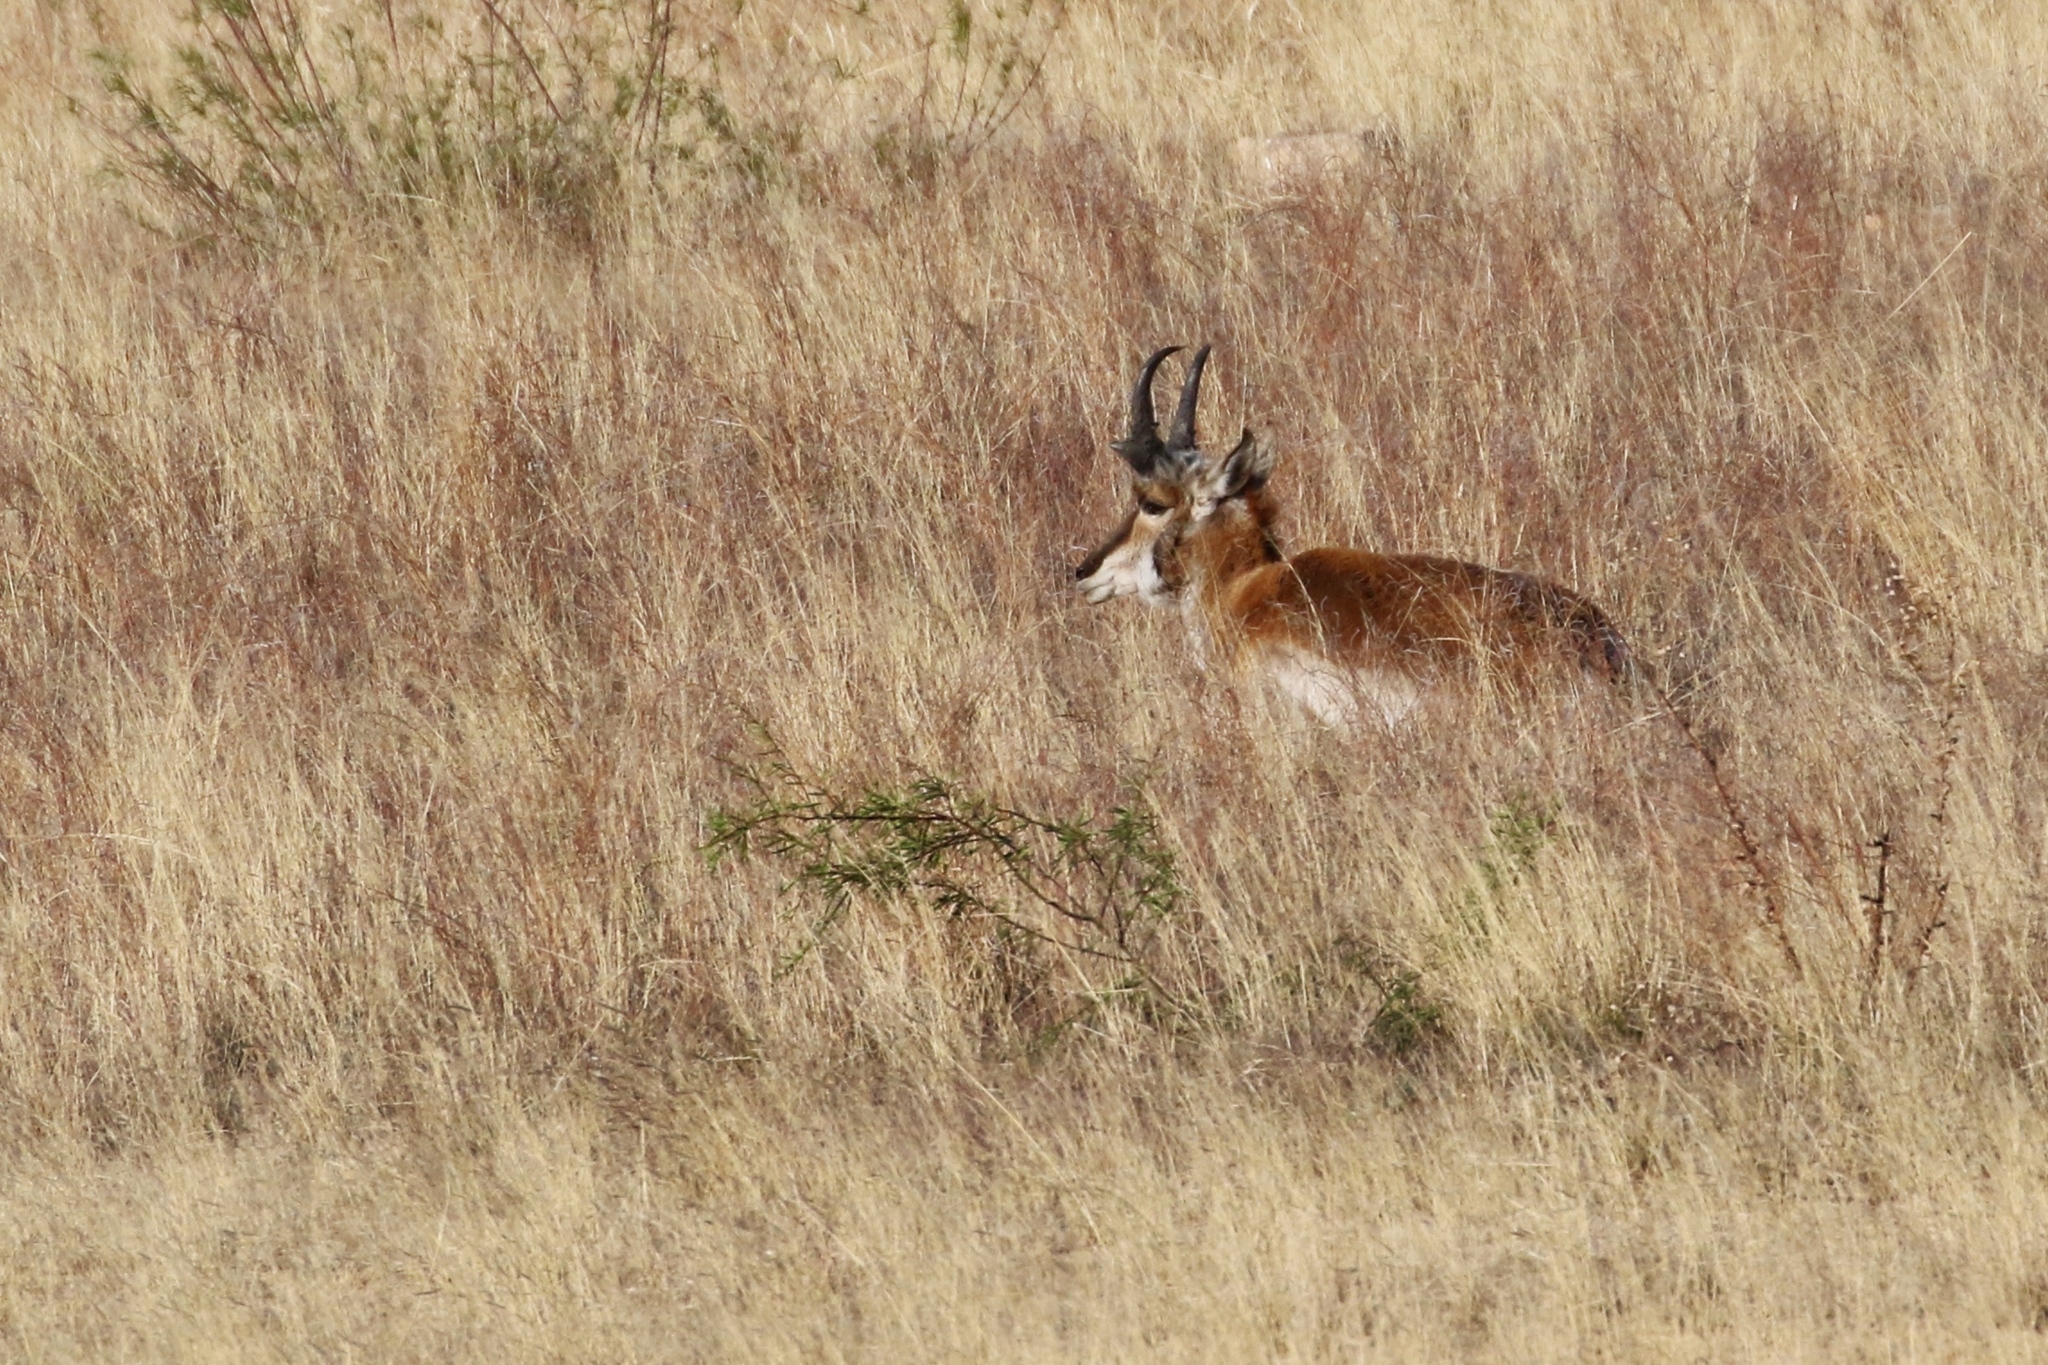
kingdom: Animalia
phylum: Chordata
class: Mammalia
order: Artiodactyla
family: Antilocapridae
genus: Antilocapra
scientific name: Antilocapra americana
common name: Pronghorn
